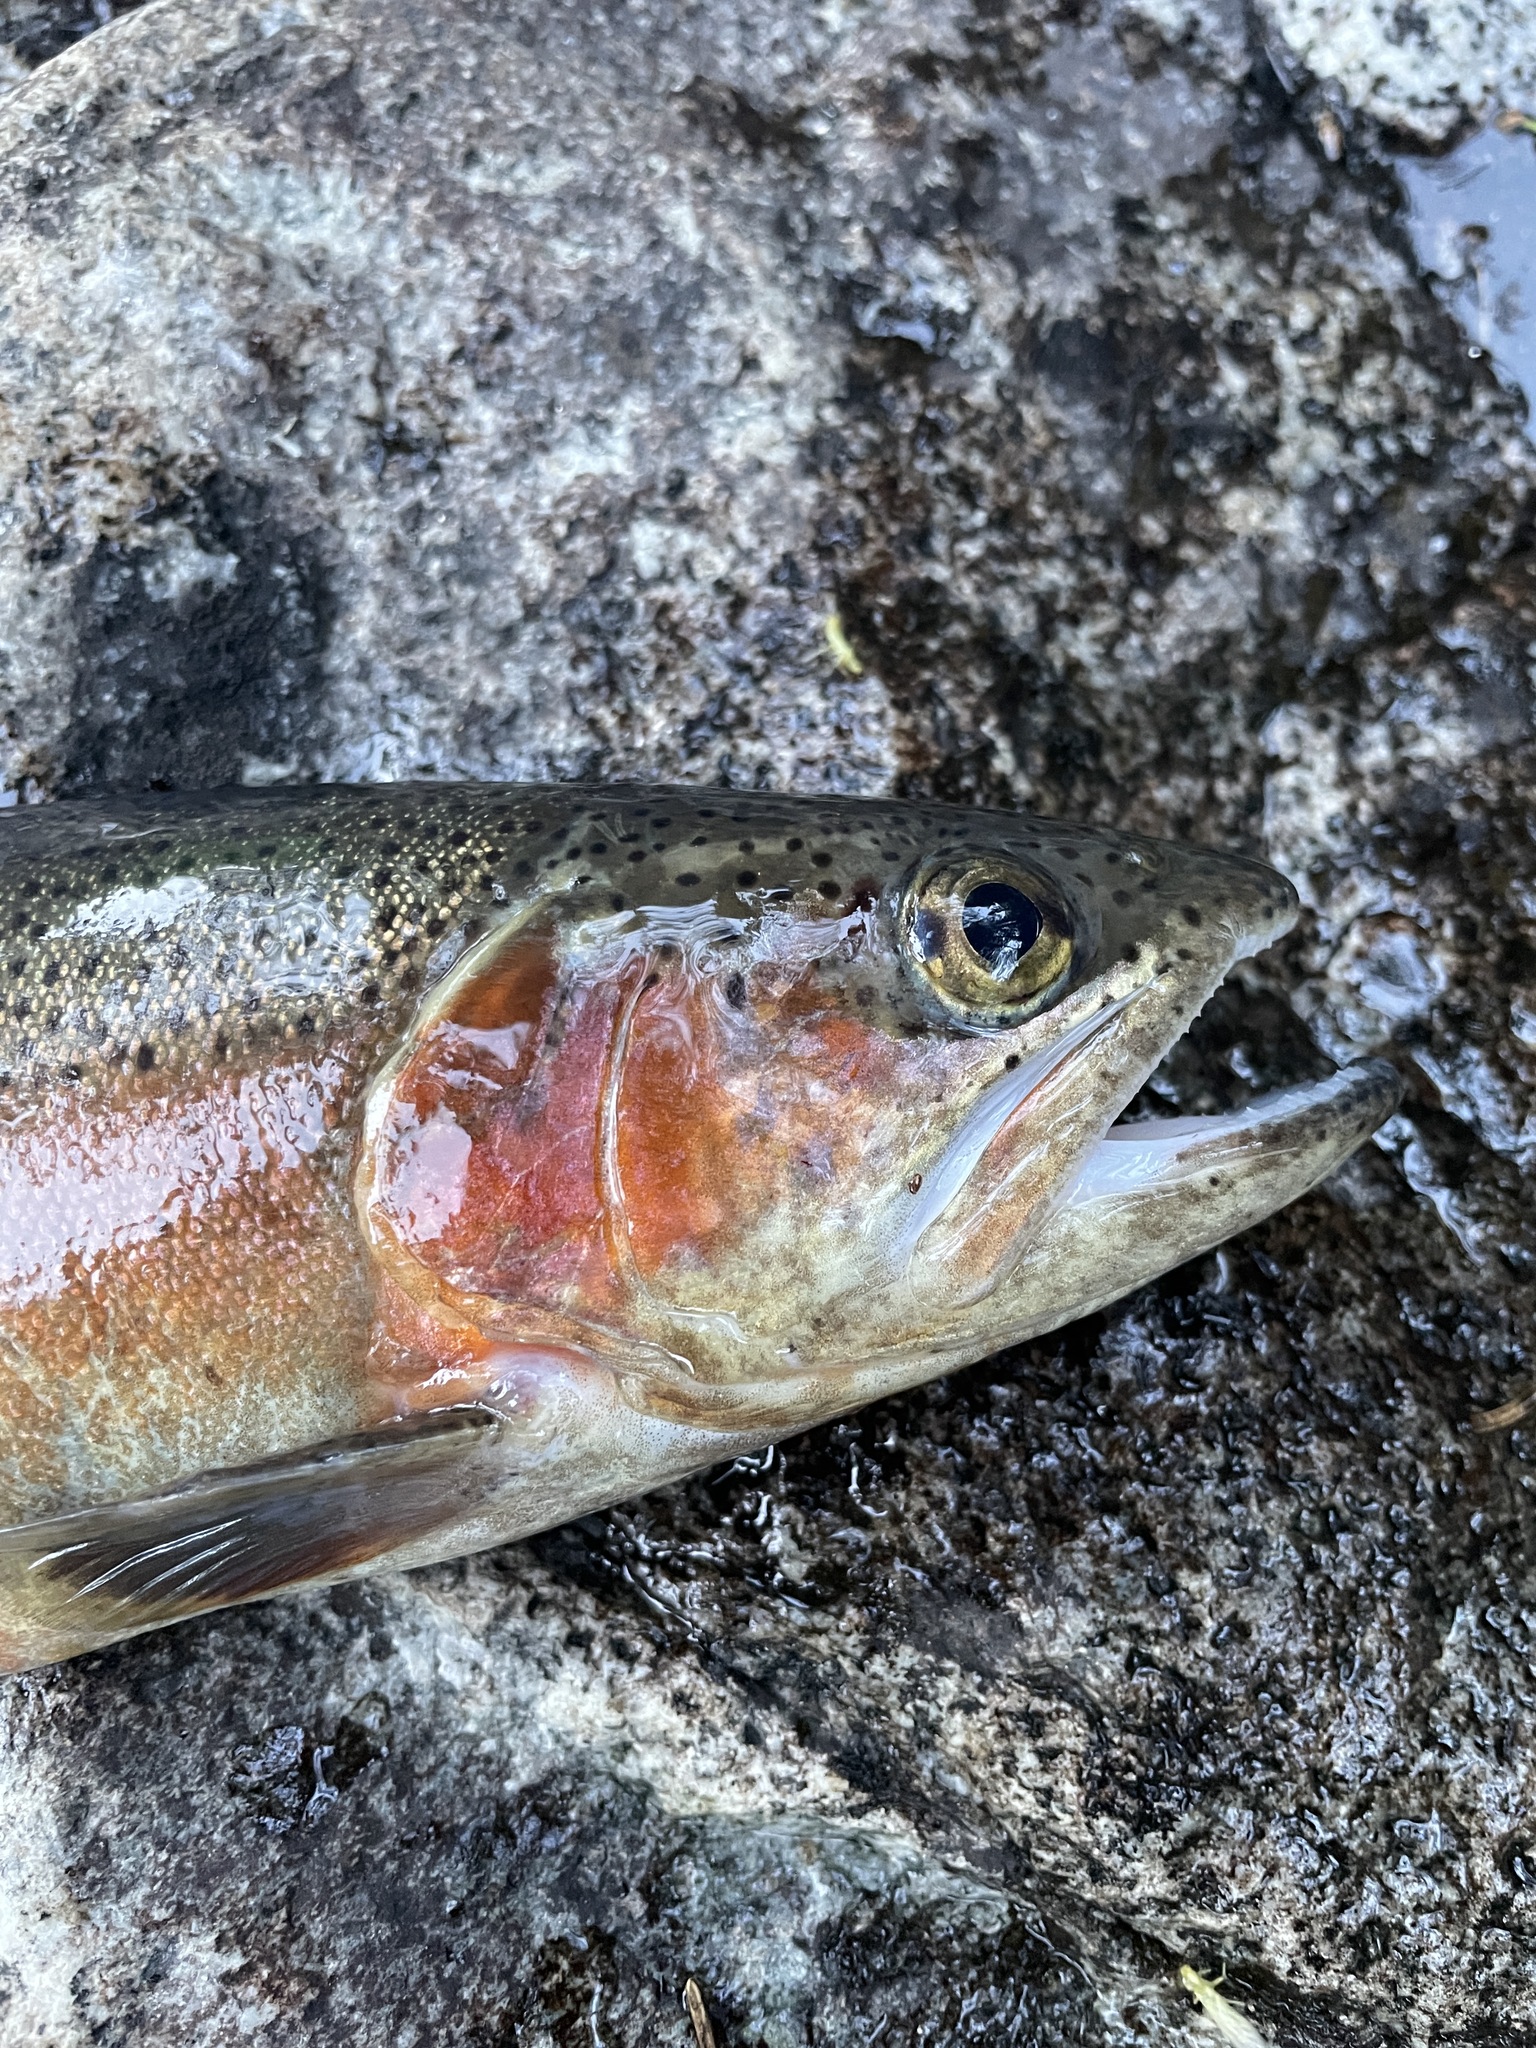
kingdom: Animalia
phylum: Chordata
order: Salmoniformes
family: Salmonidae
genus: Oncorhynchus
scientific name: Oncorhynchus mykiss
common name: Rainbow trout
